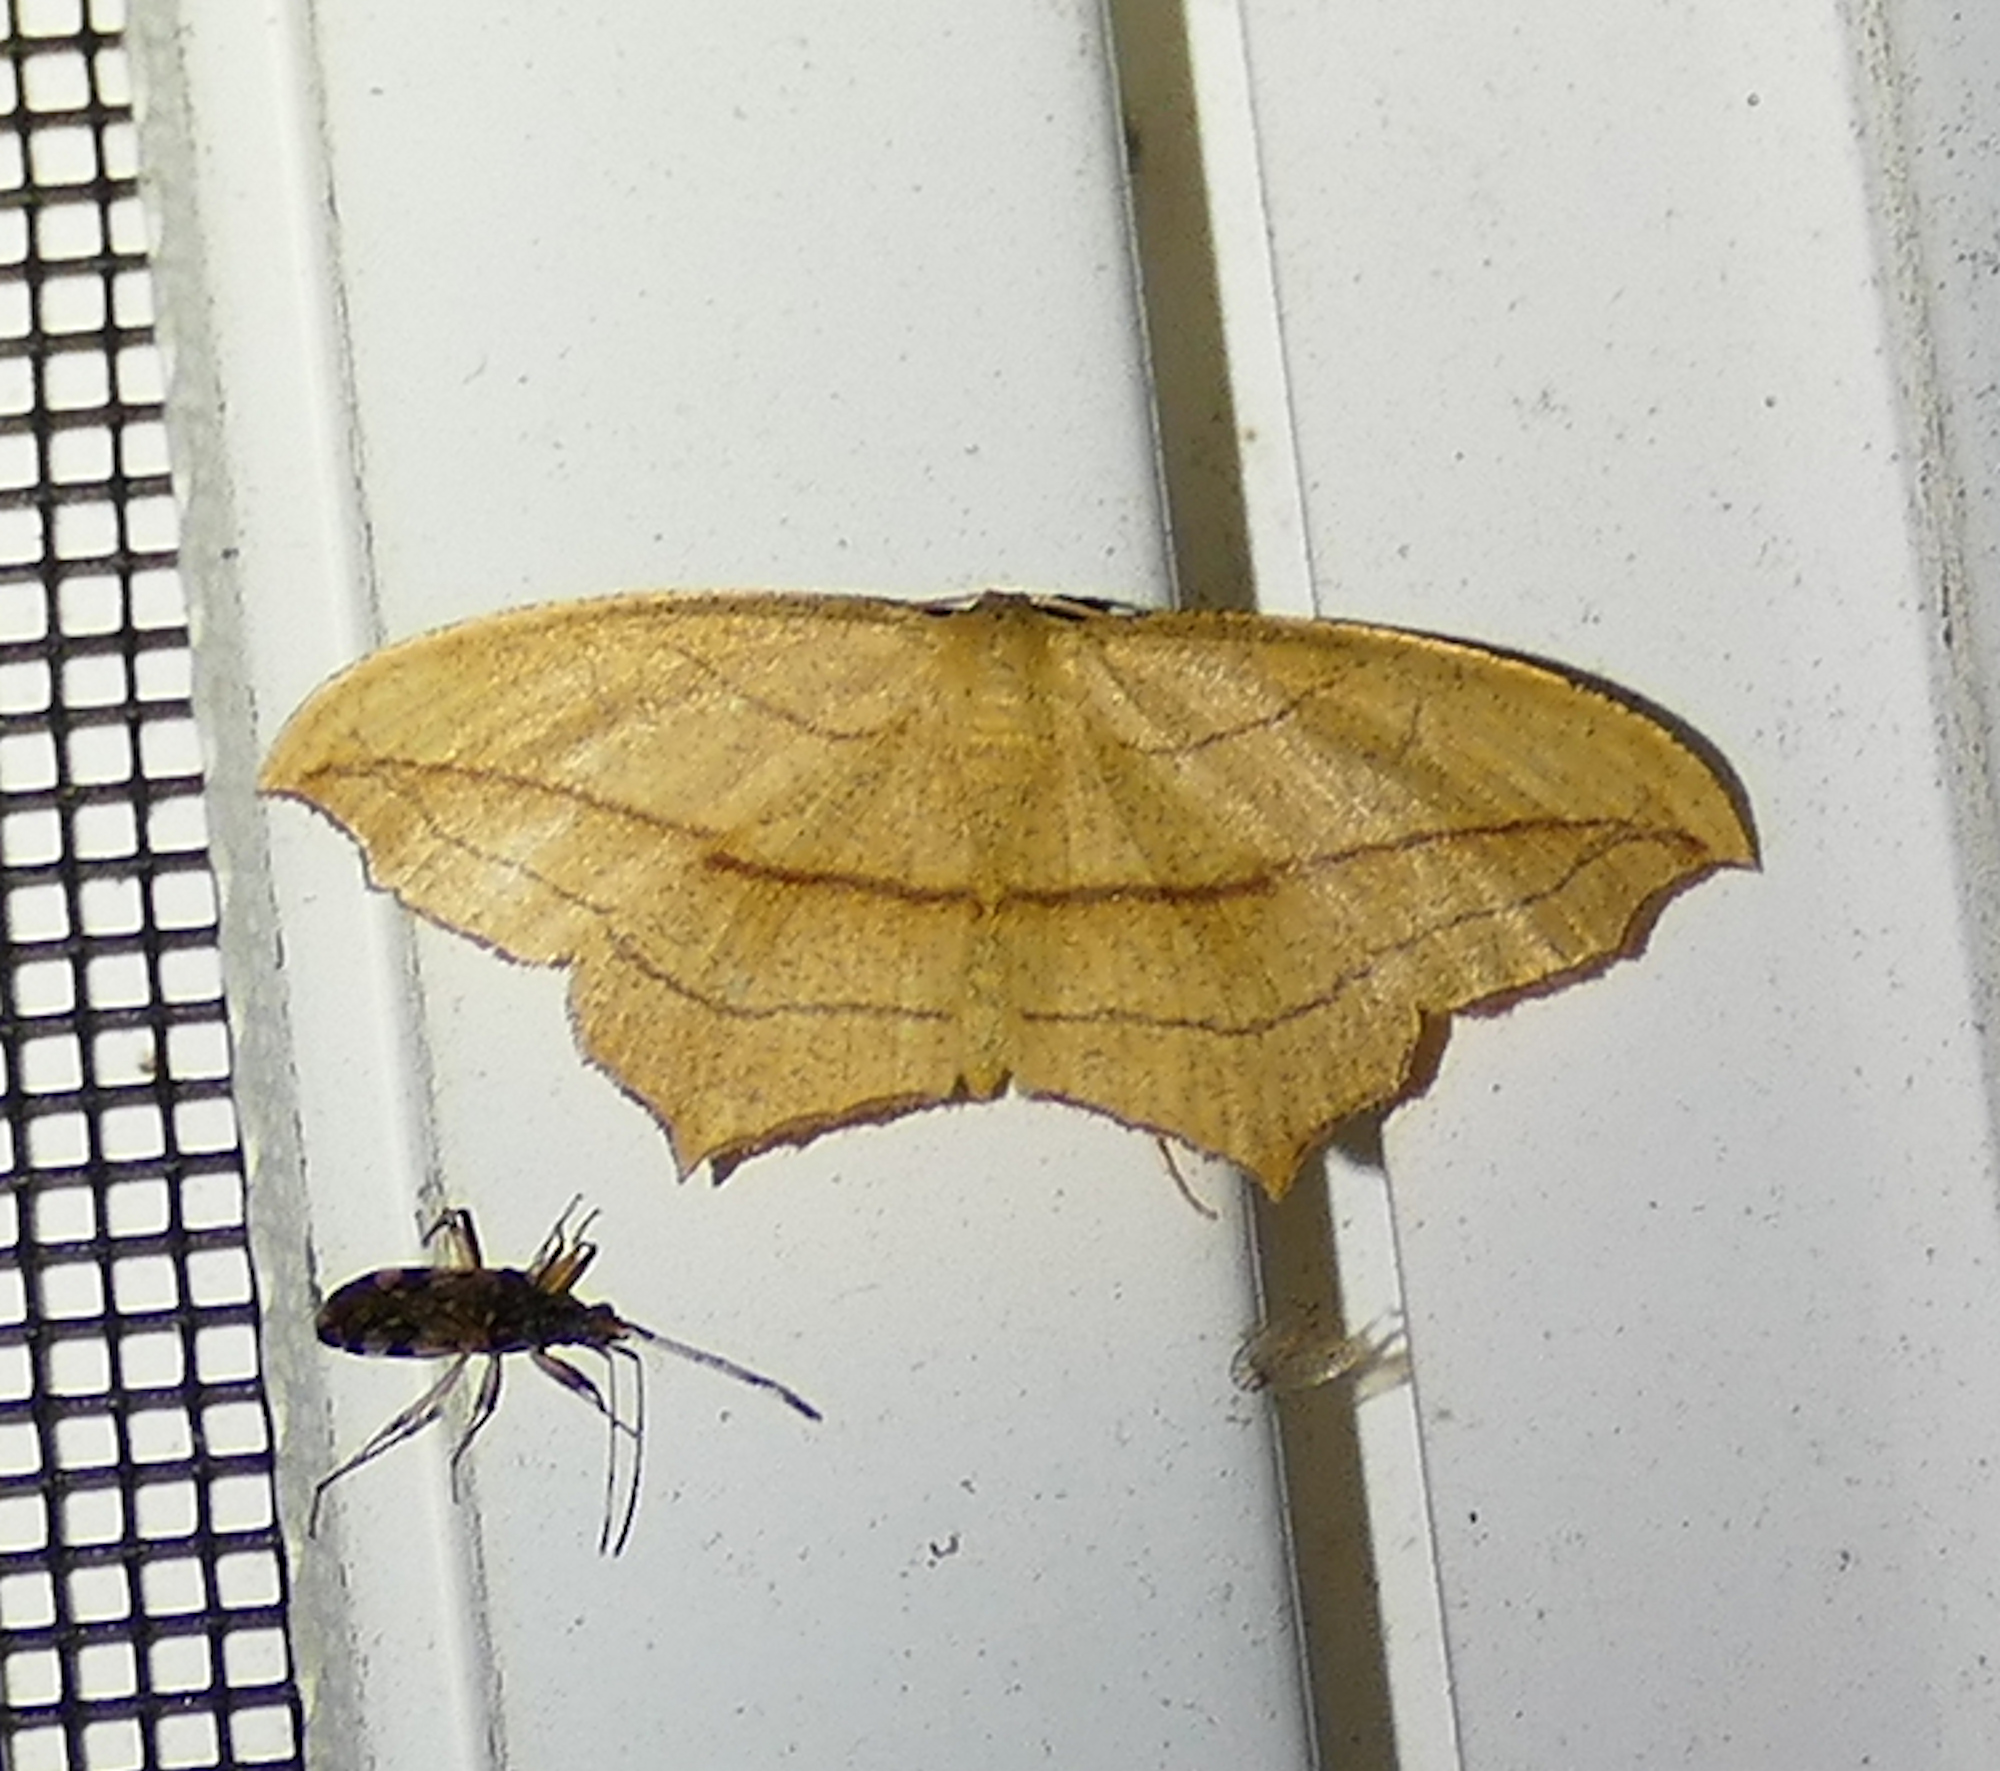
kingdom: Animalia
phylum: Arthropoda
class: Insecta
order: Lepidoptera
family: Geometridae
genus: Timandra
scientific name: Timandra amaturaria
